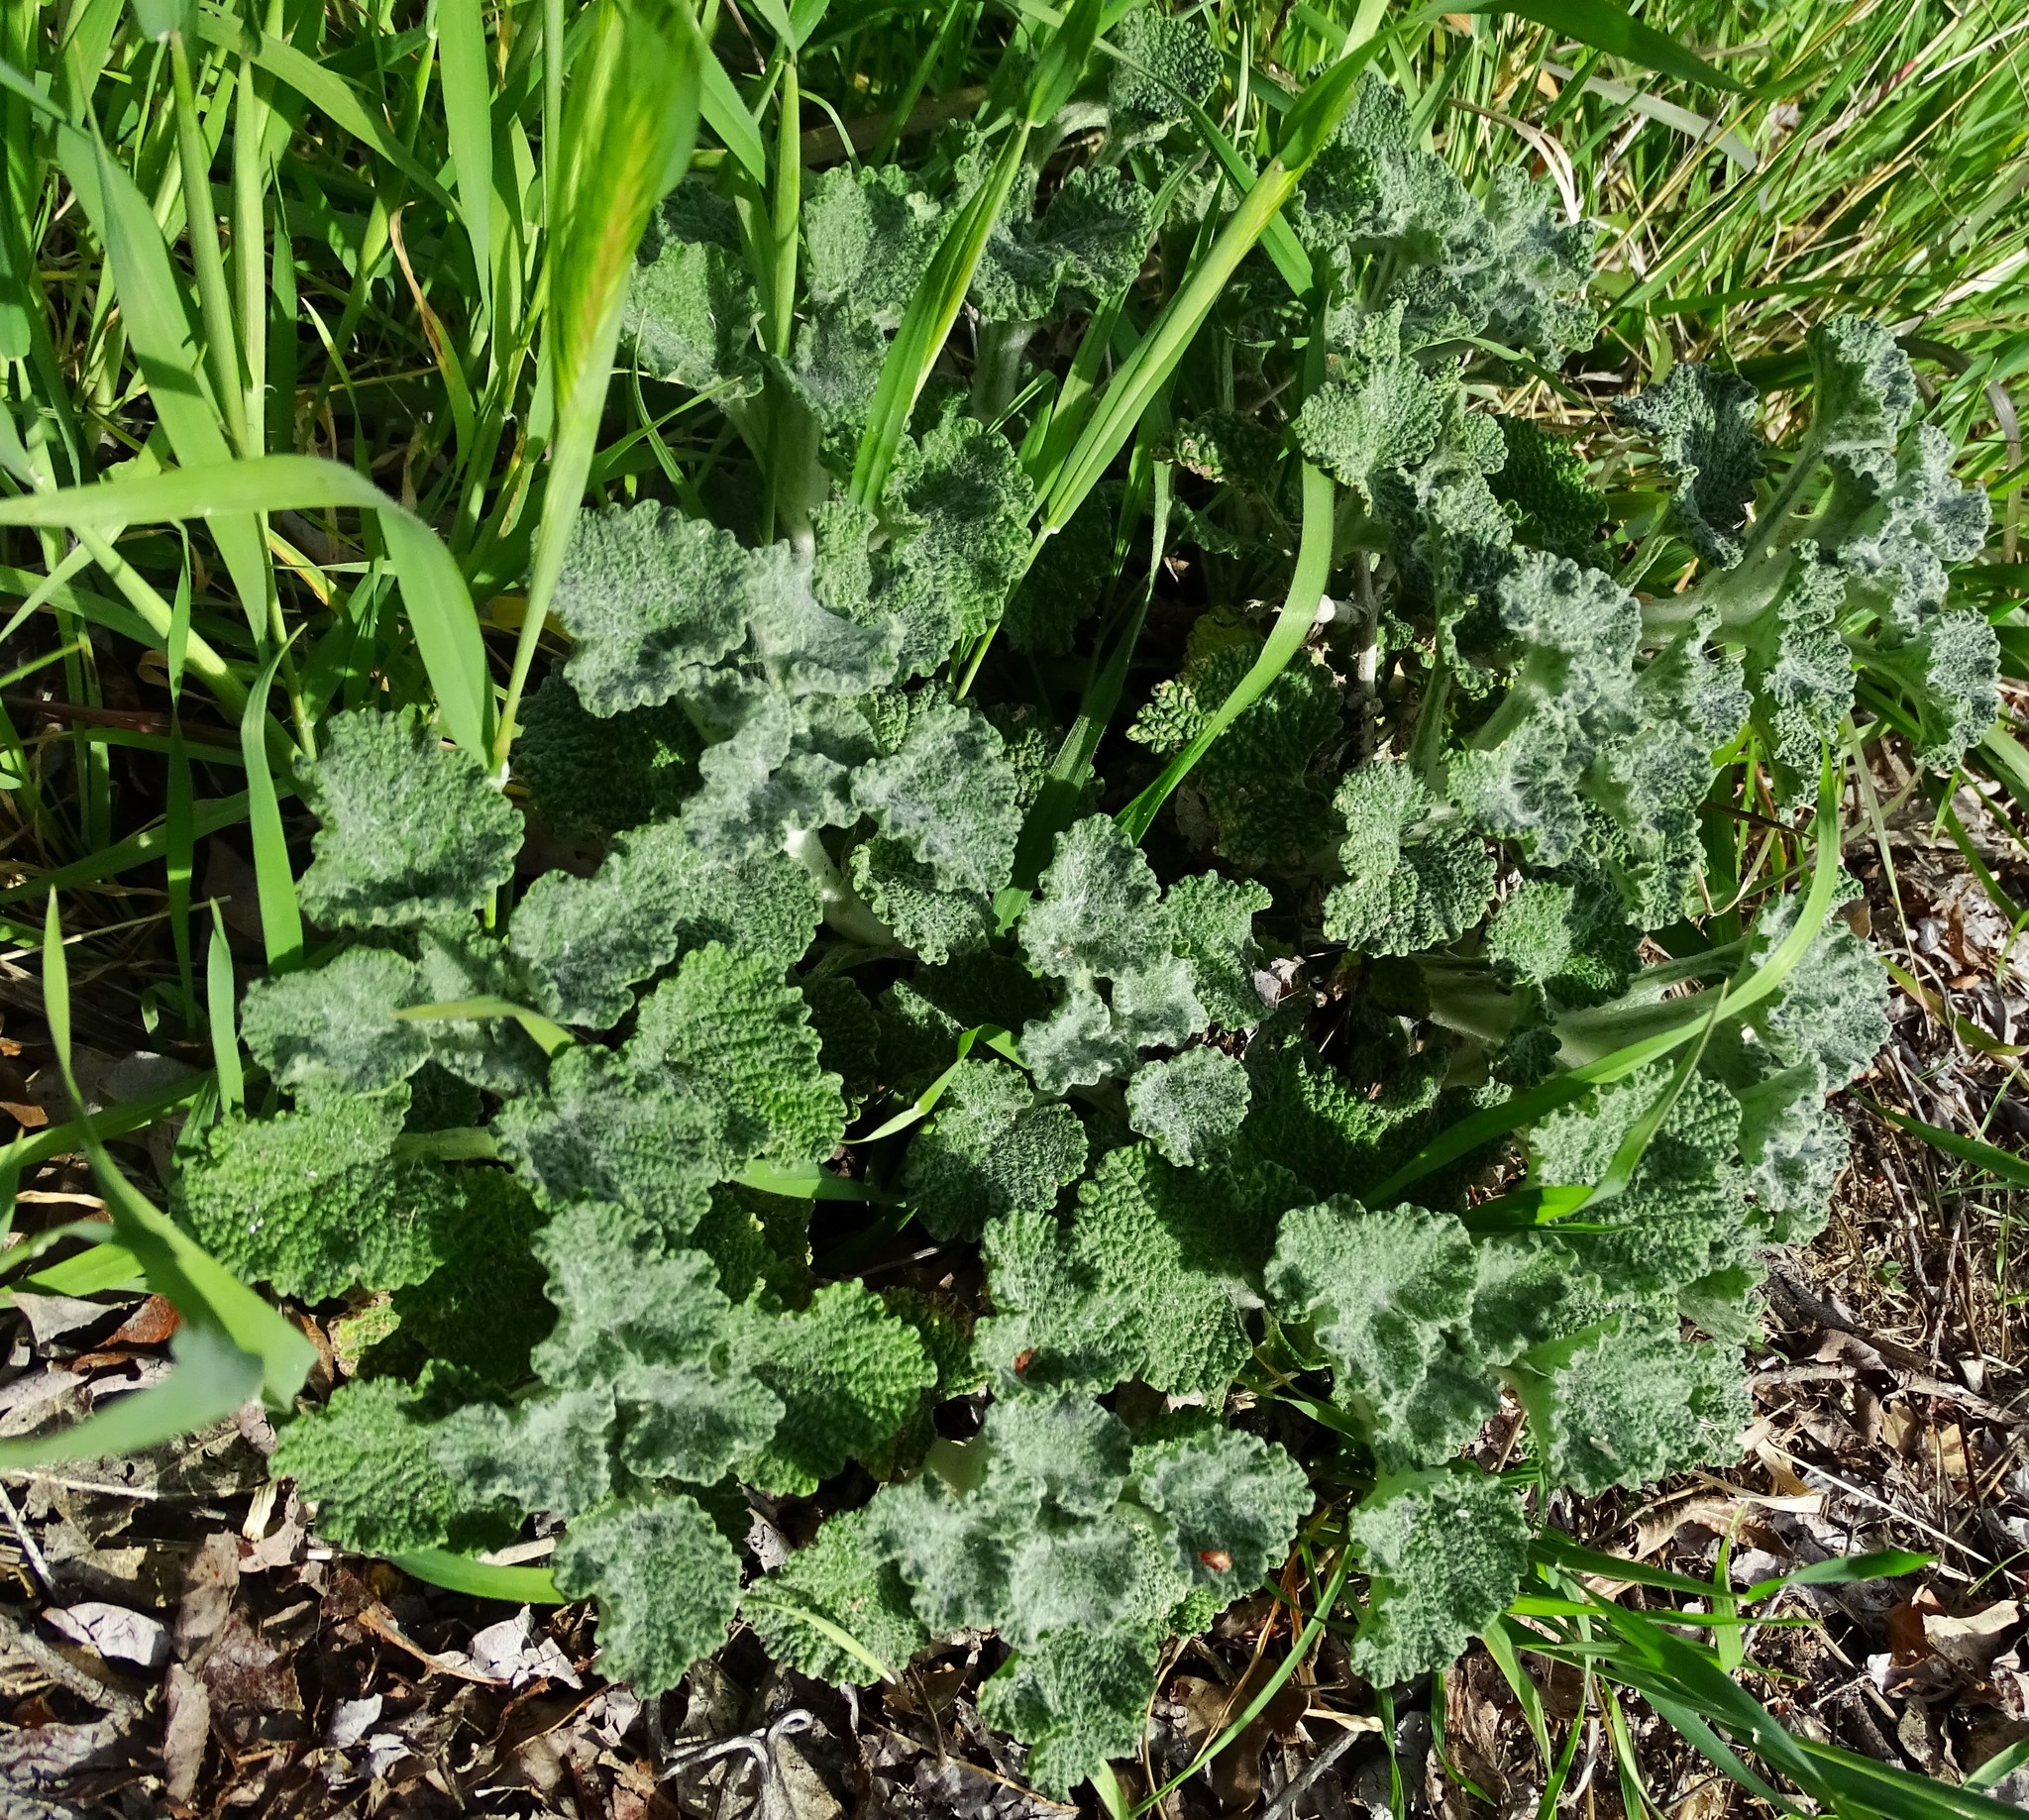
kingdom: Plantae
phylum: Tracheophyta
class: Magnoliopsida
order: Lamiales
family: Lamiaceae
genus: Marrubium
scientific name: Marrubium vulgare
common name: Horehound
